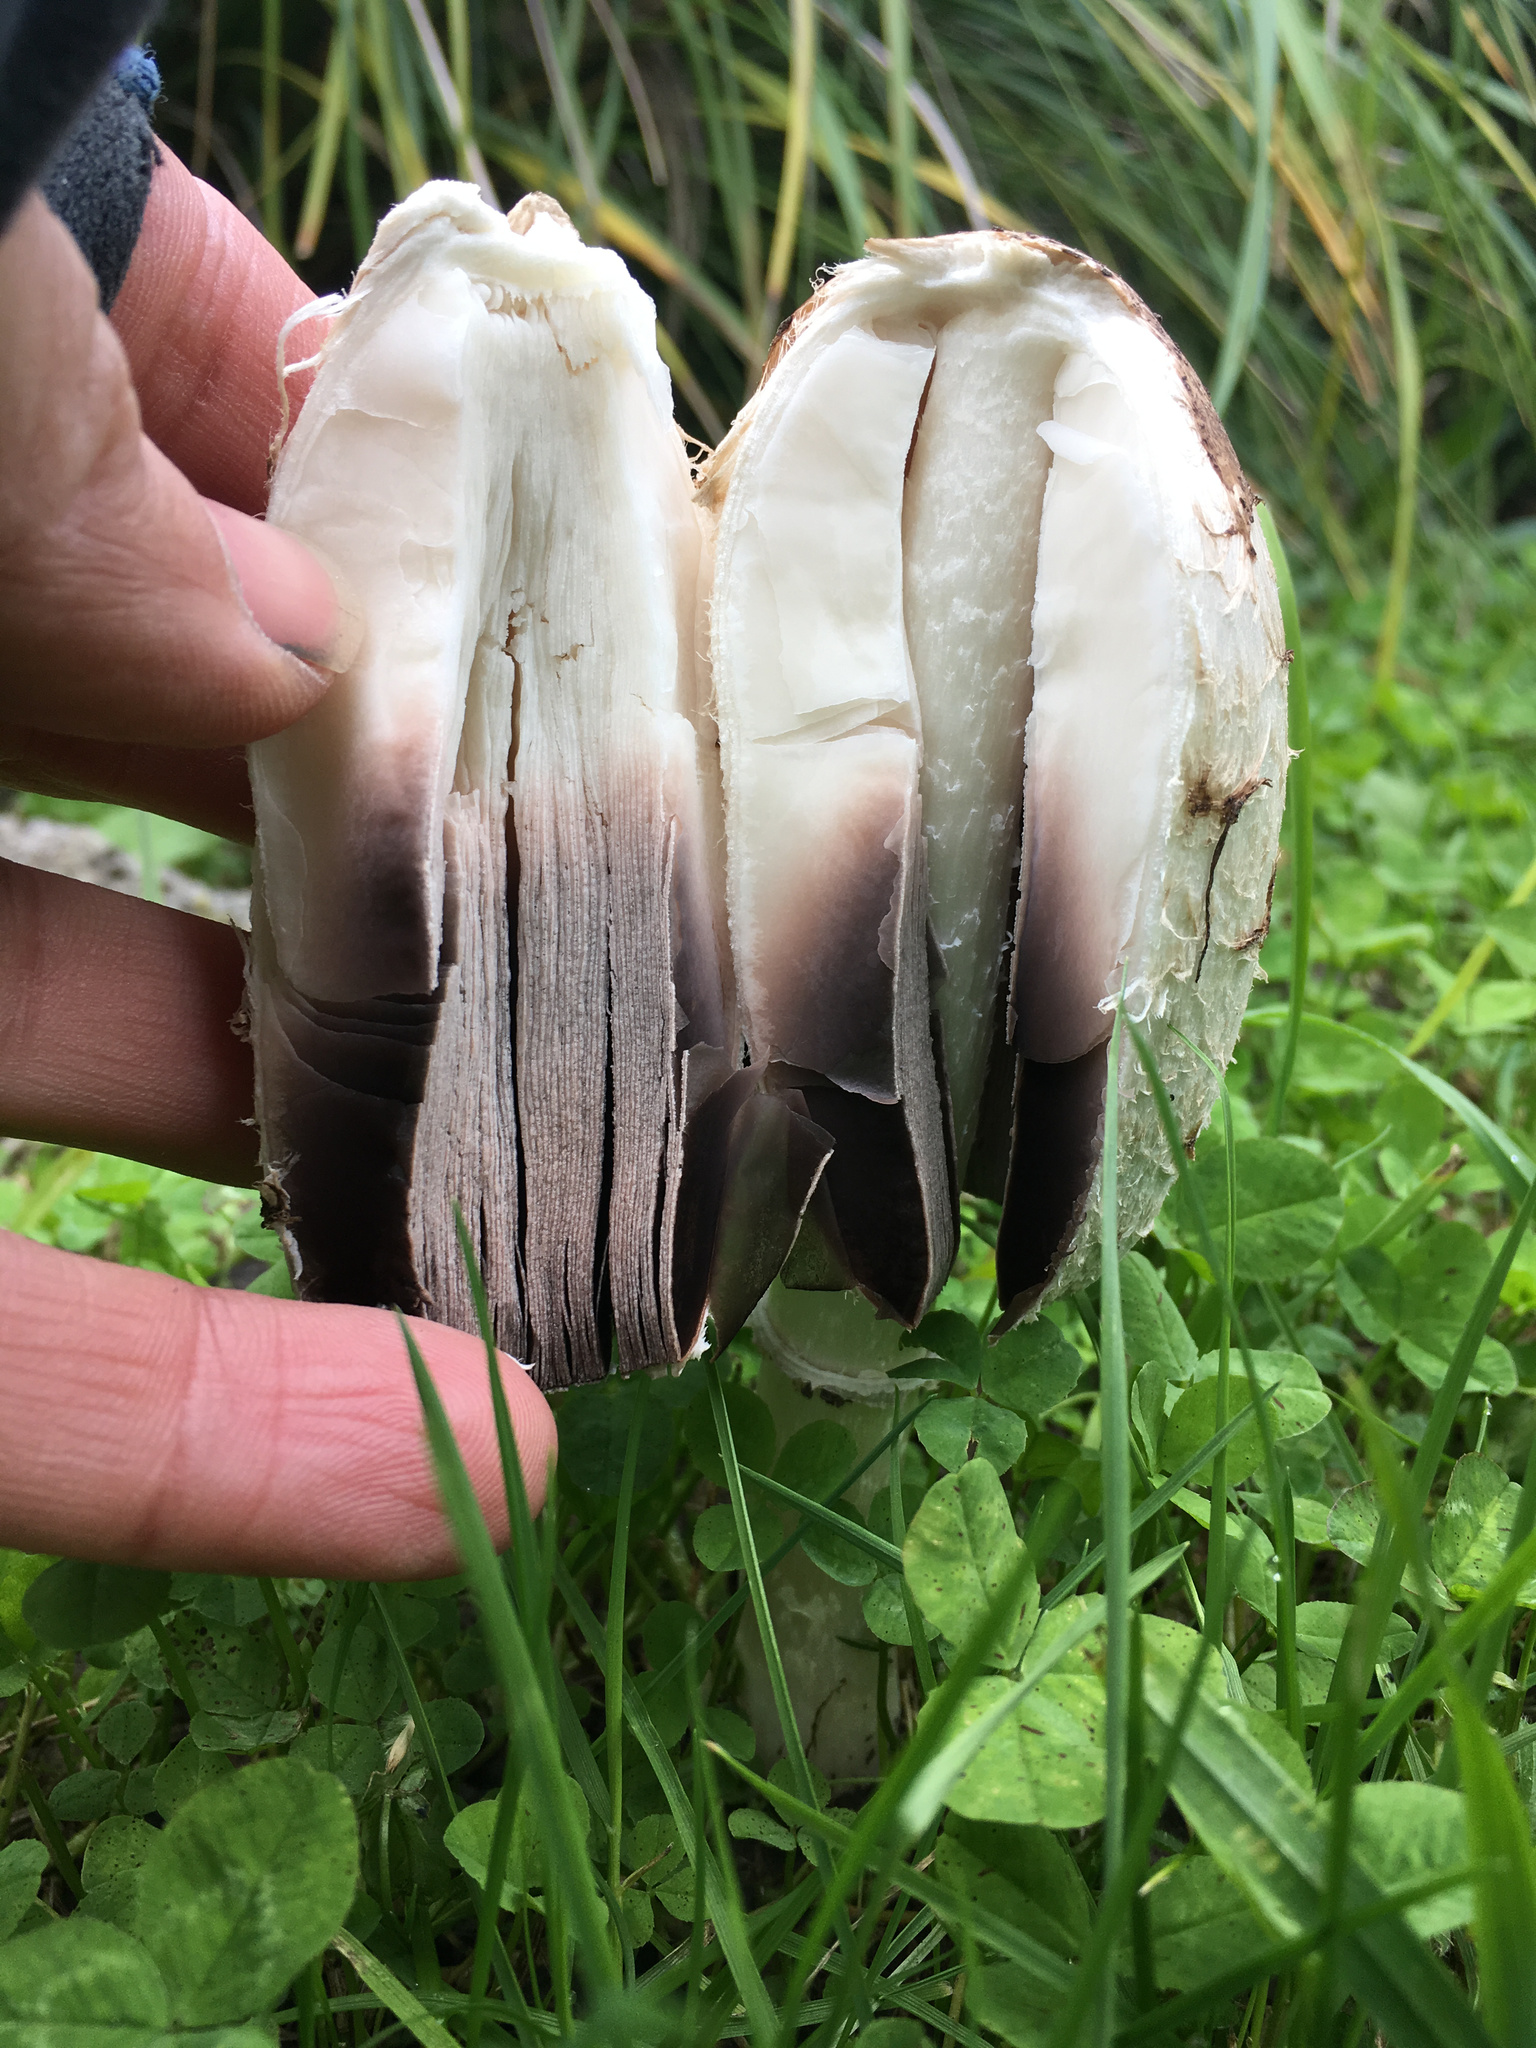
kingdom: Fungi
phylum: Basidiomycota
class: Agaricomycetes
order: Agaricales
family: Agaricaceae
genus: Coprinus
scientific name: Coprinus comatus
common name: Lawyer's wig
